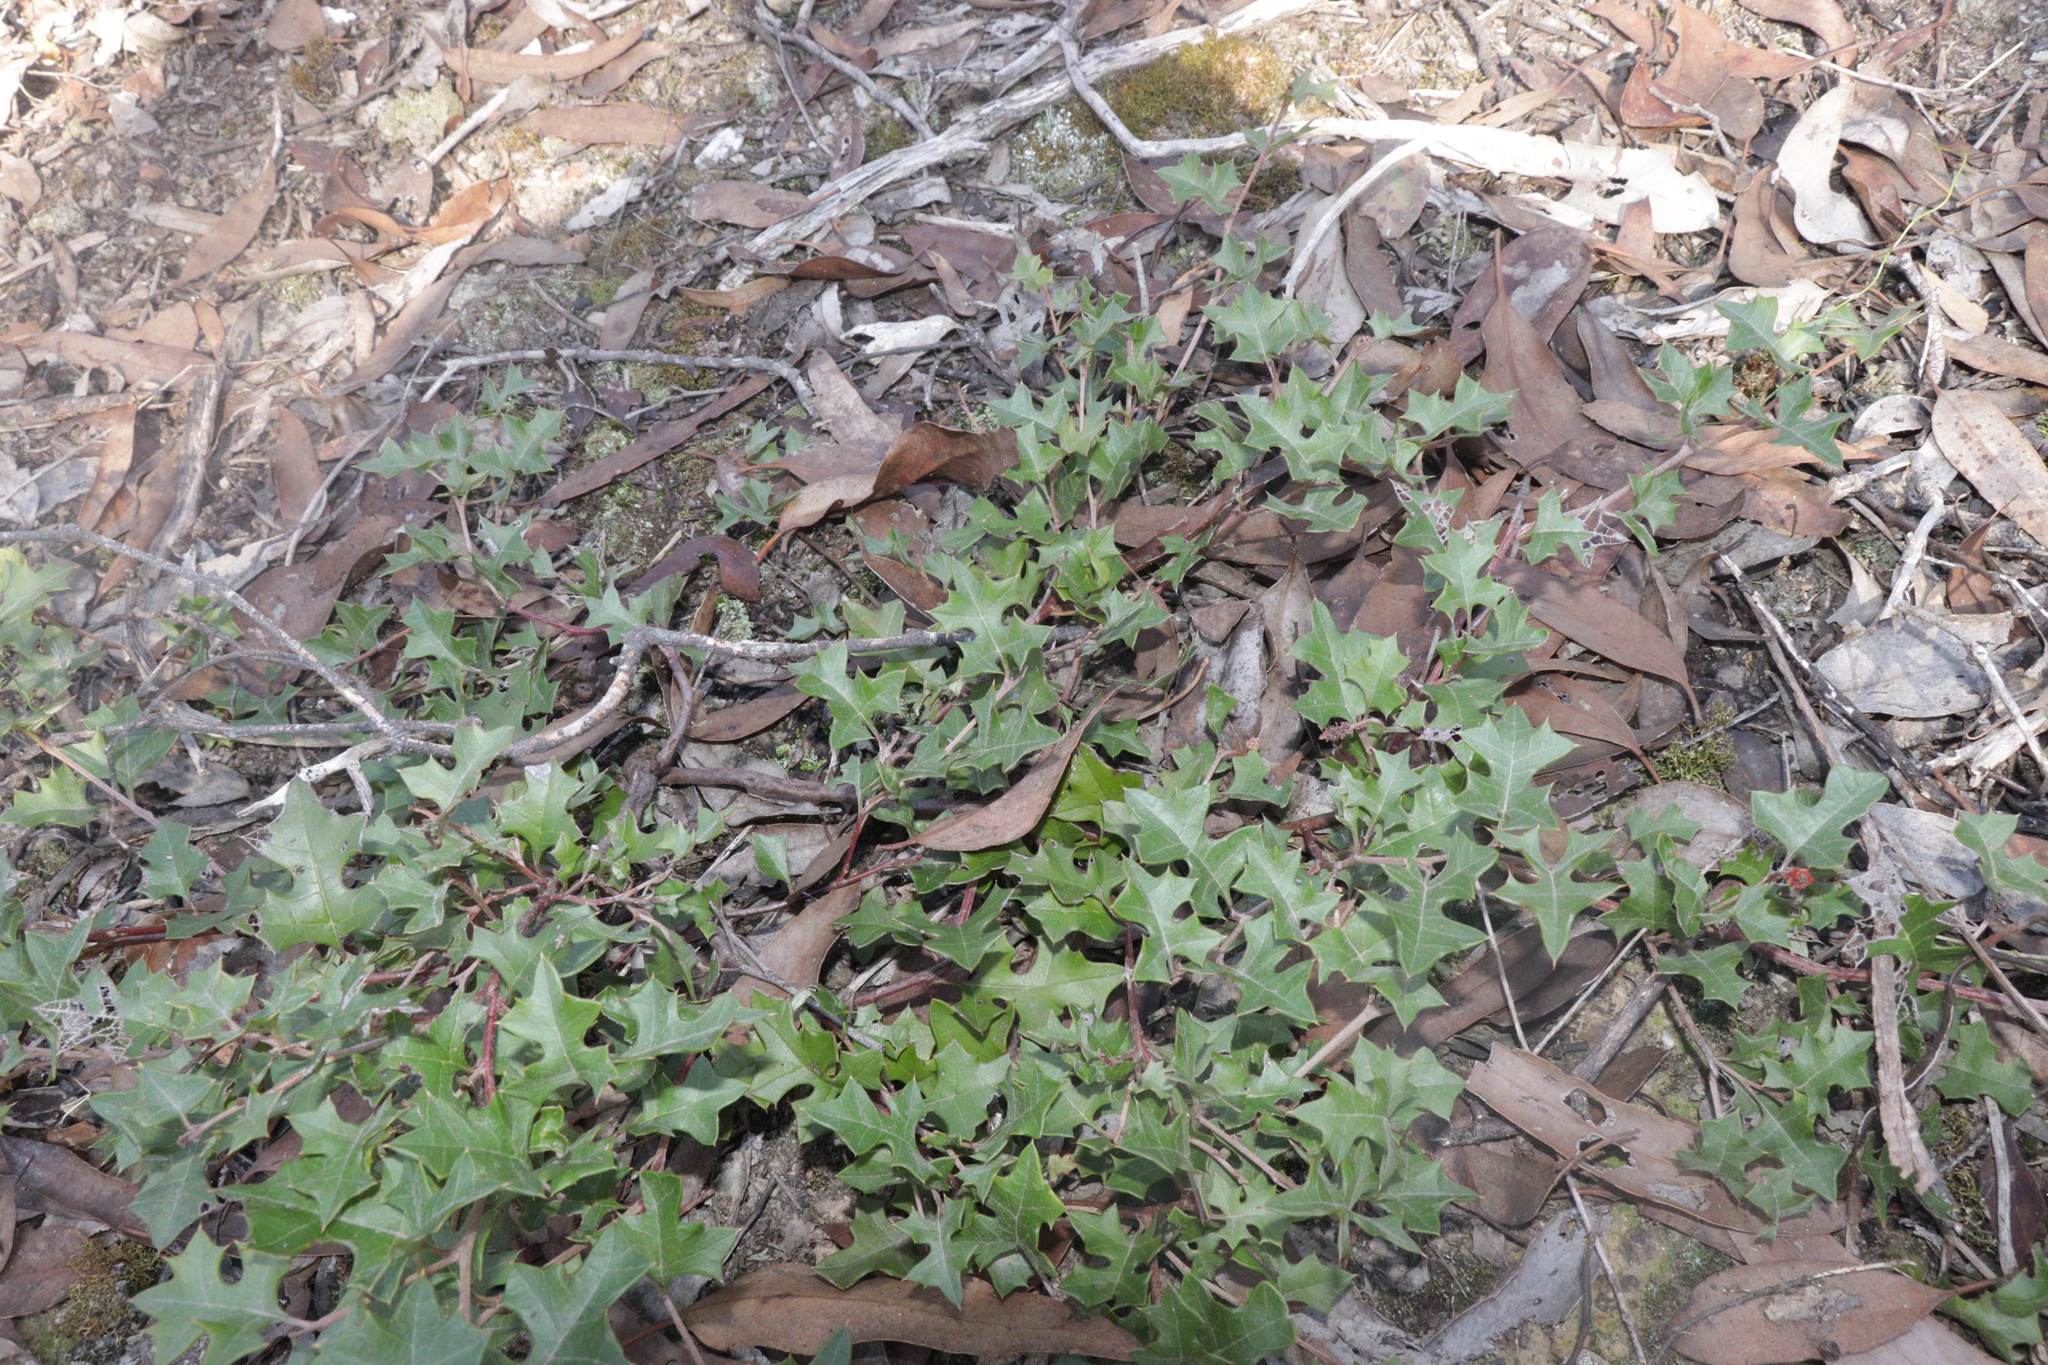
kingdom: Plantae
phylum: Tracheophyta
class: Magnoliopsida
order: Proteales
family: Proteaceae
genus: Grevillea
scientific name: Grevillea steiglitziana
